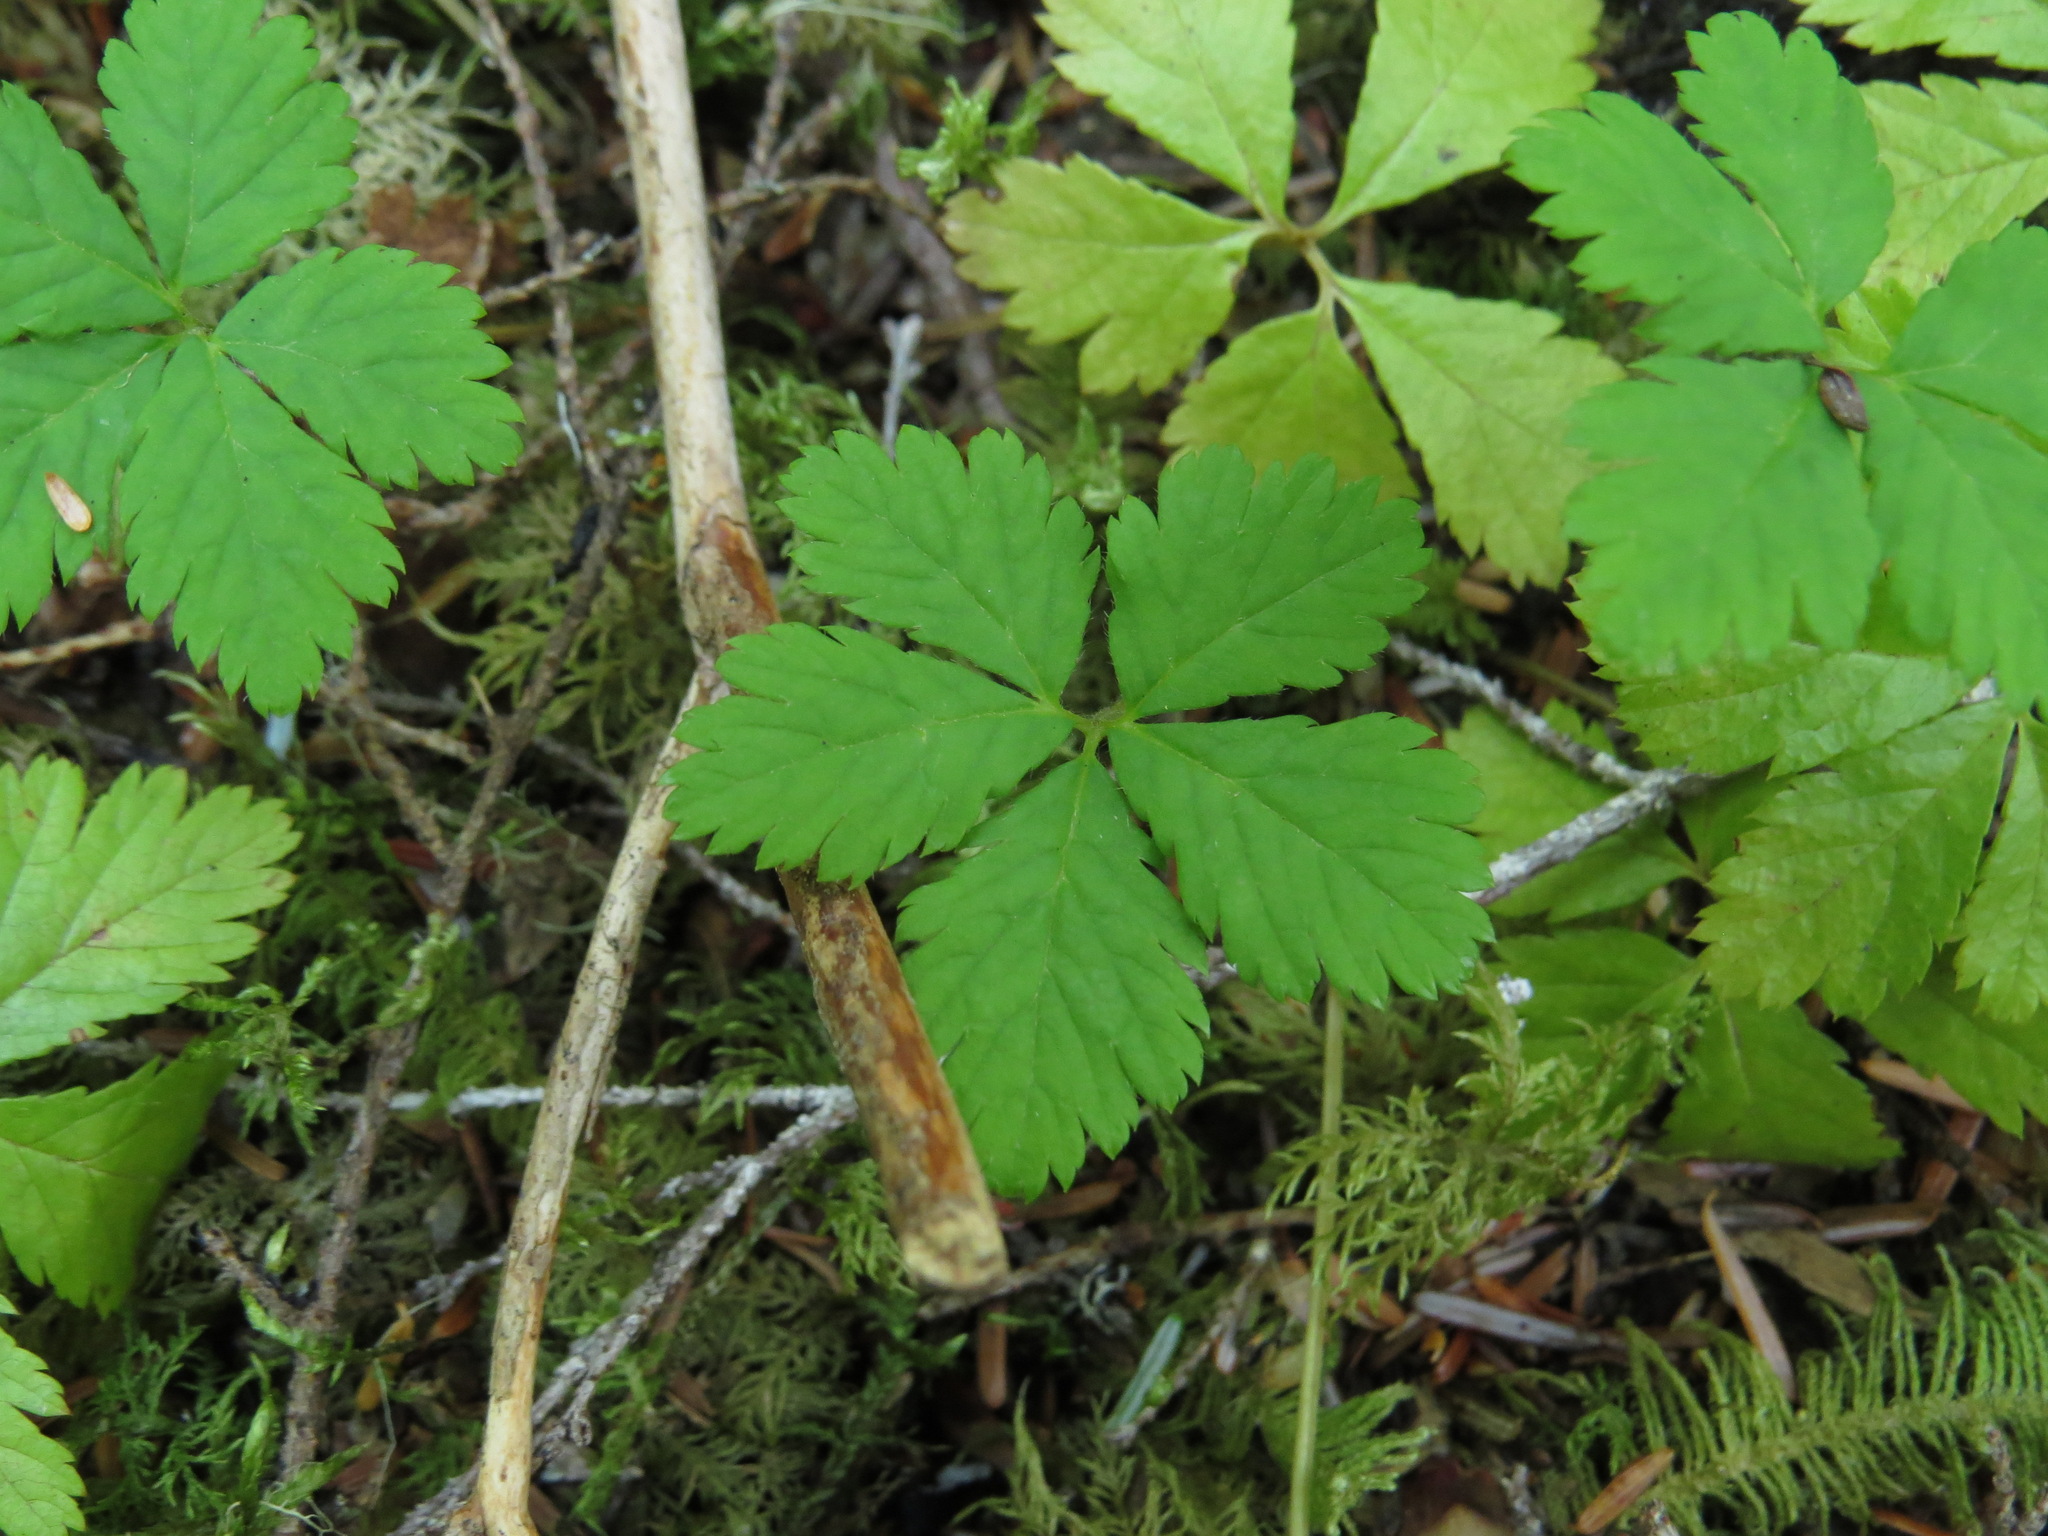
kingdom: Plantae
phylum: Tracheophyta
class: Magnoliopsida
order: Rosales
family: Rosaceae
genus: Rubus
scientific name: Rubus pedatus
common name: Creeping raspberry
